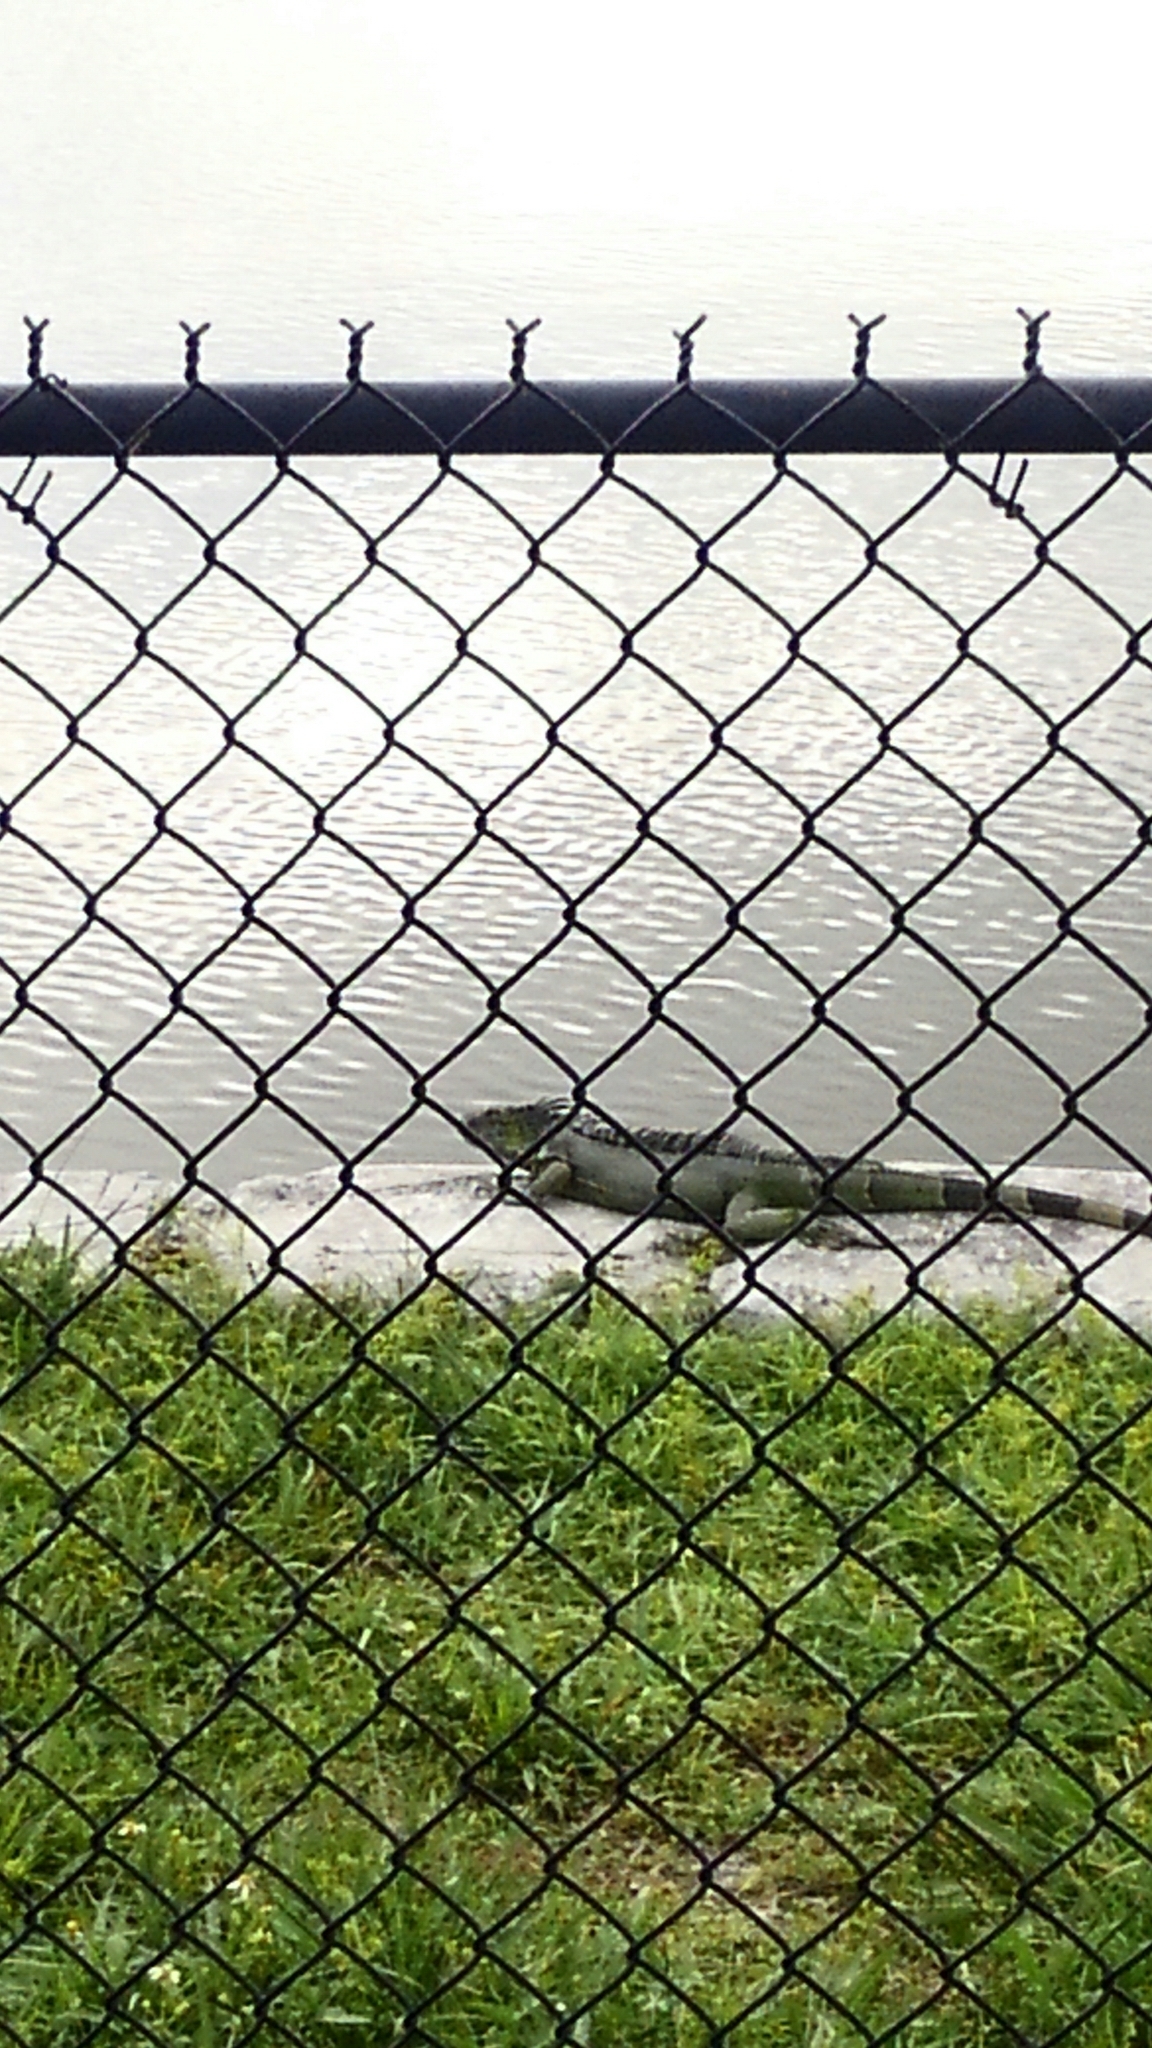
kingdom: Animalia
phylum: Chordata
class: Squamata
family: Iguanidae
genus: Iguana
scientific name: Iguana iguana
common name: Green iguana
